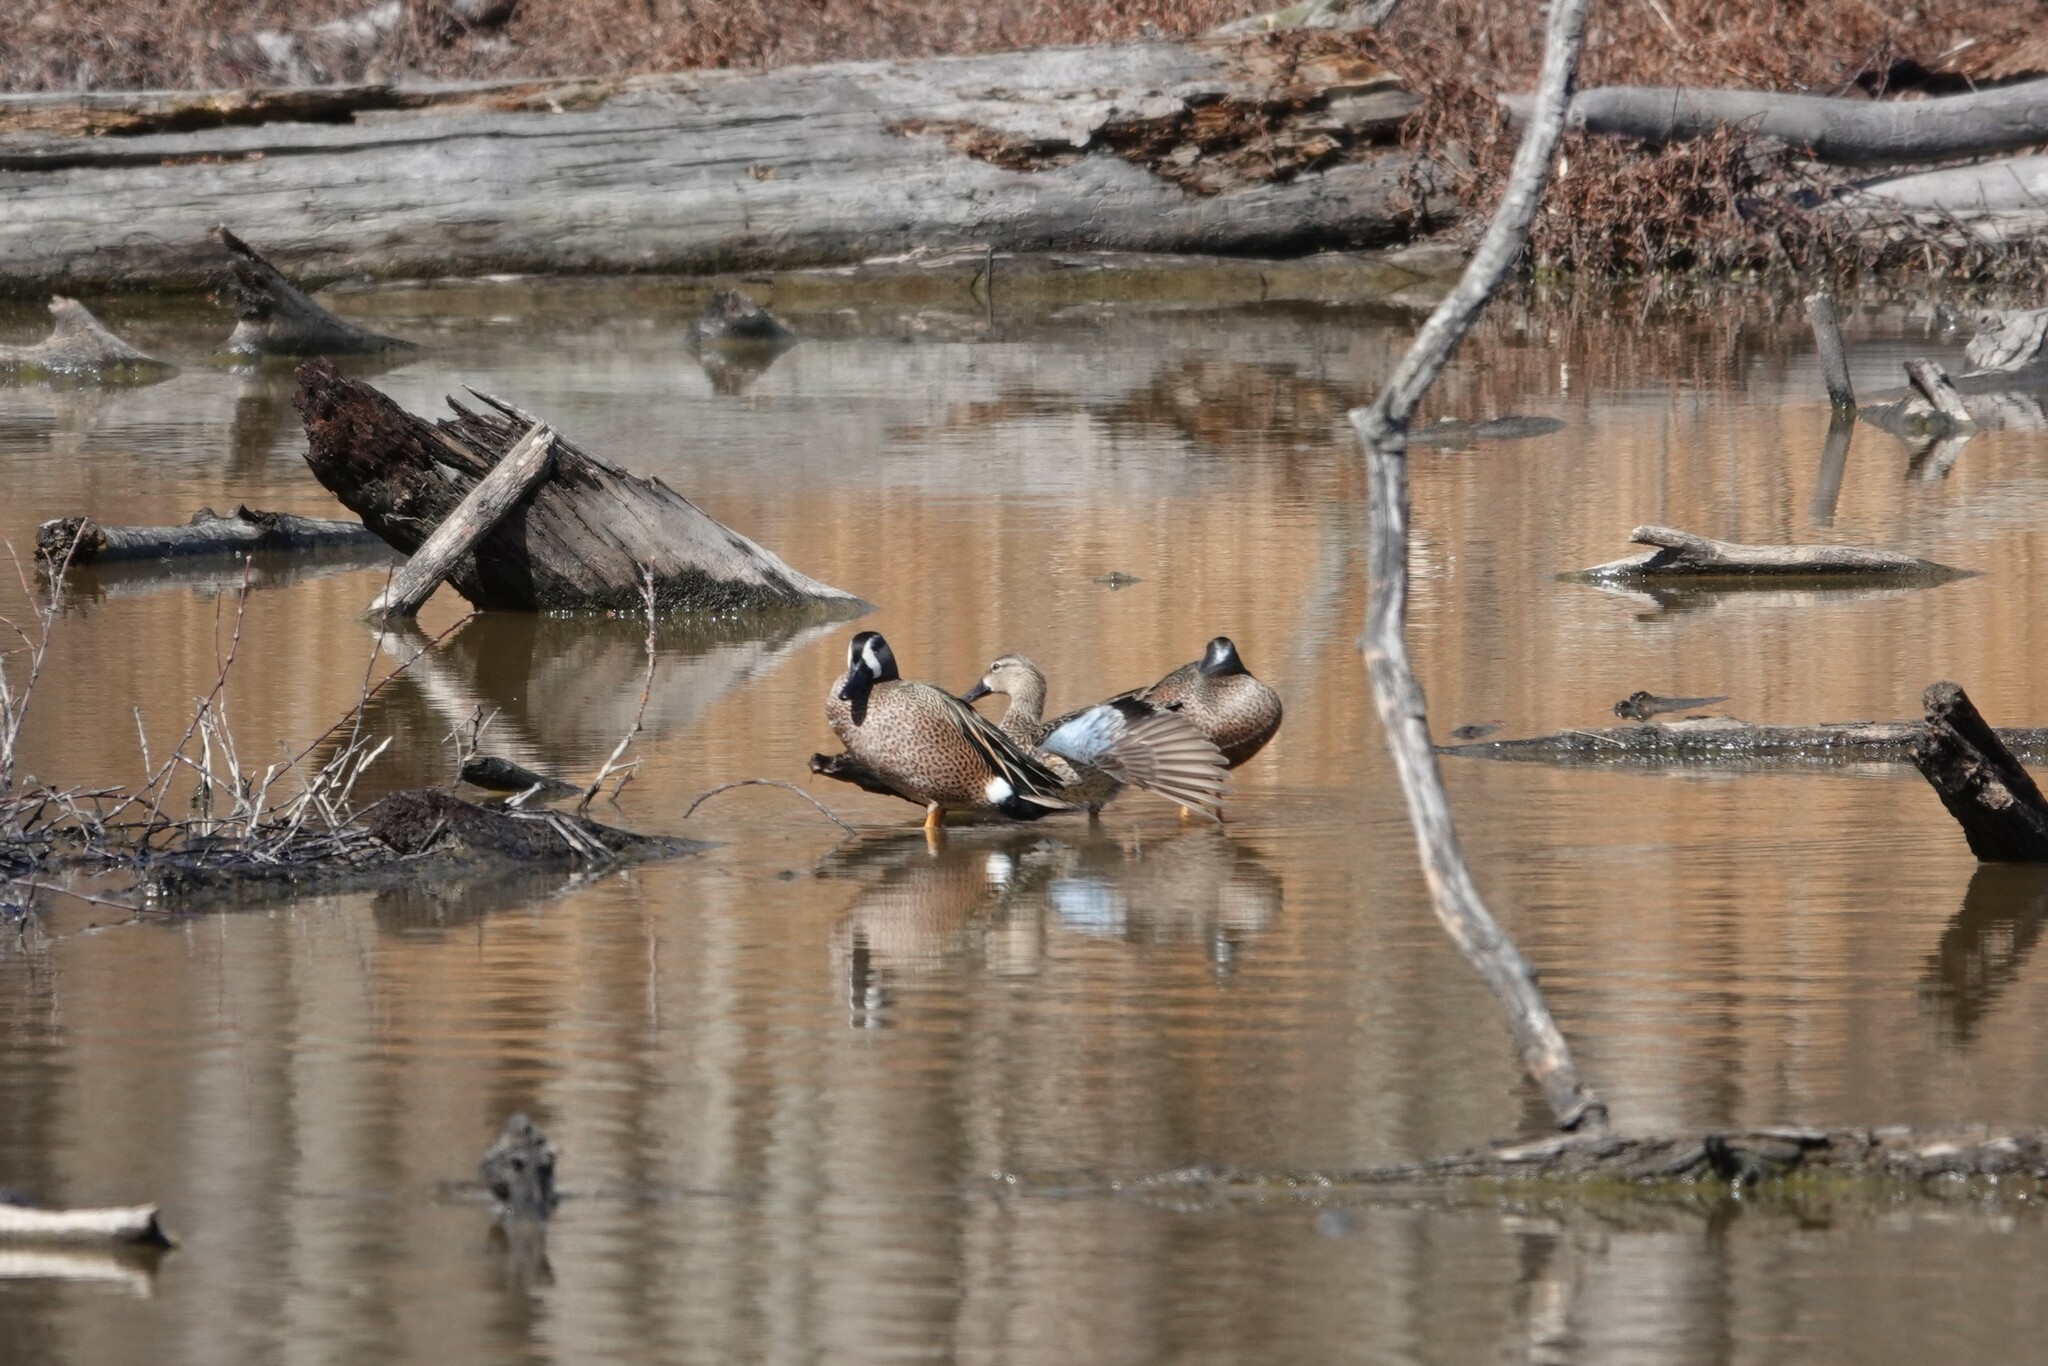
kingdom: Animalia
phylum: Chordata
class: Aves
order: Anseriformes
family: Anatidae
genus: Spatula
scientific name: Spatula discors
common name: Blue-winged teal
